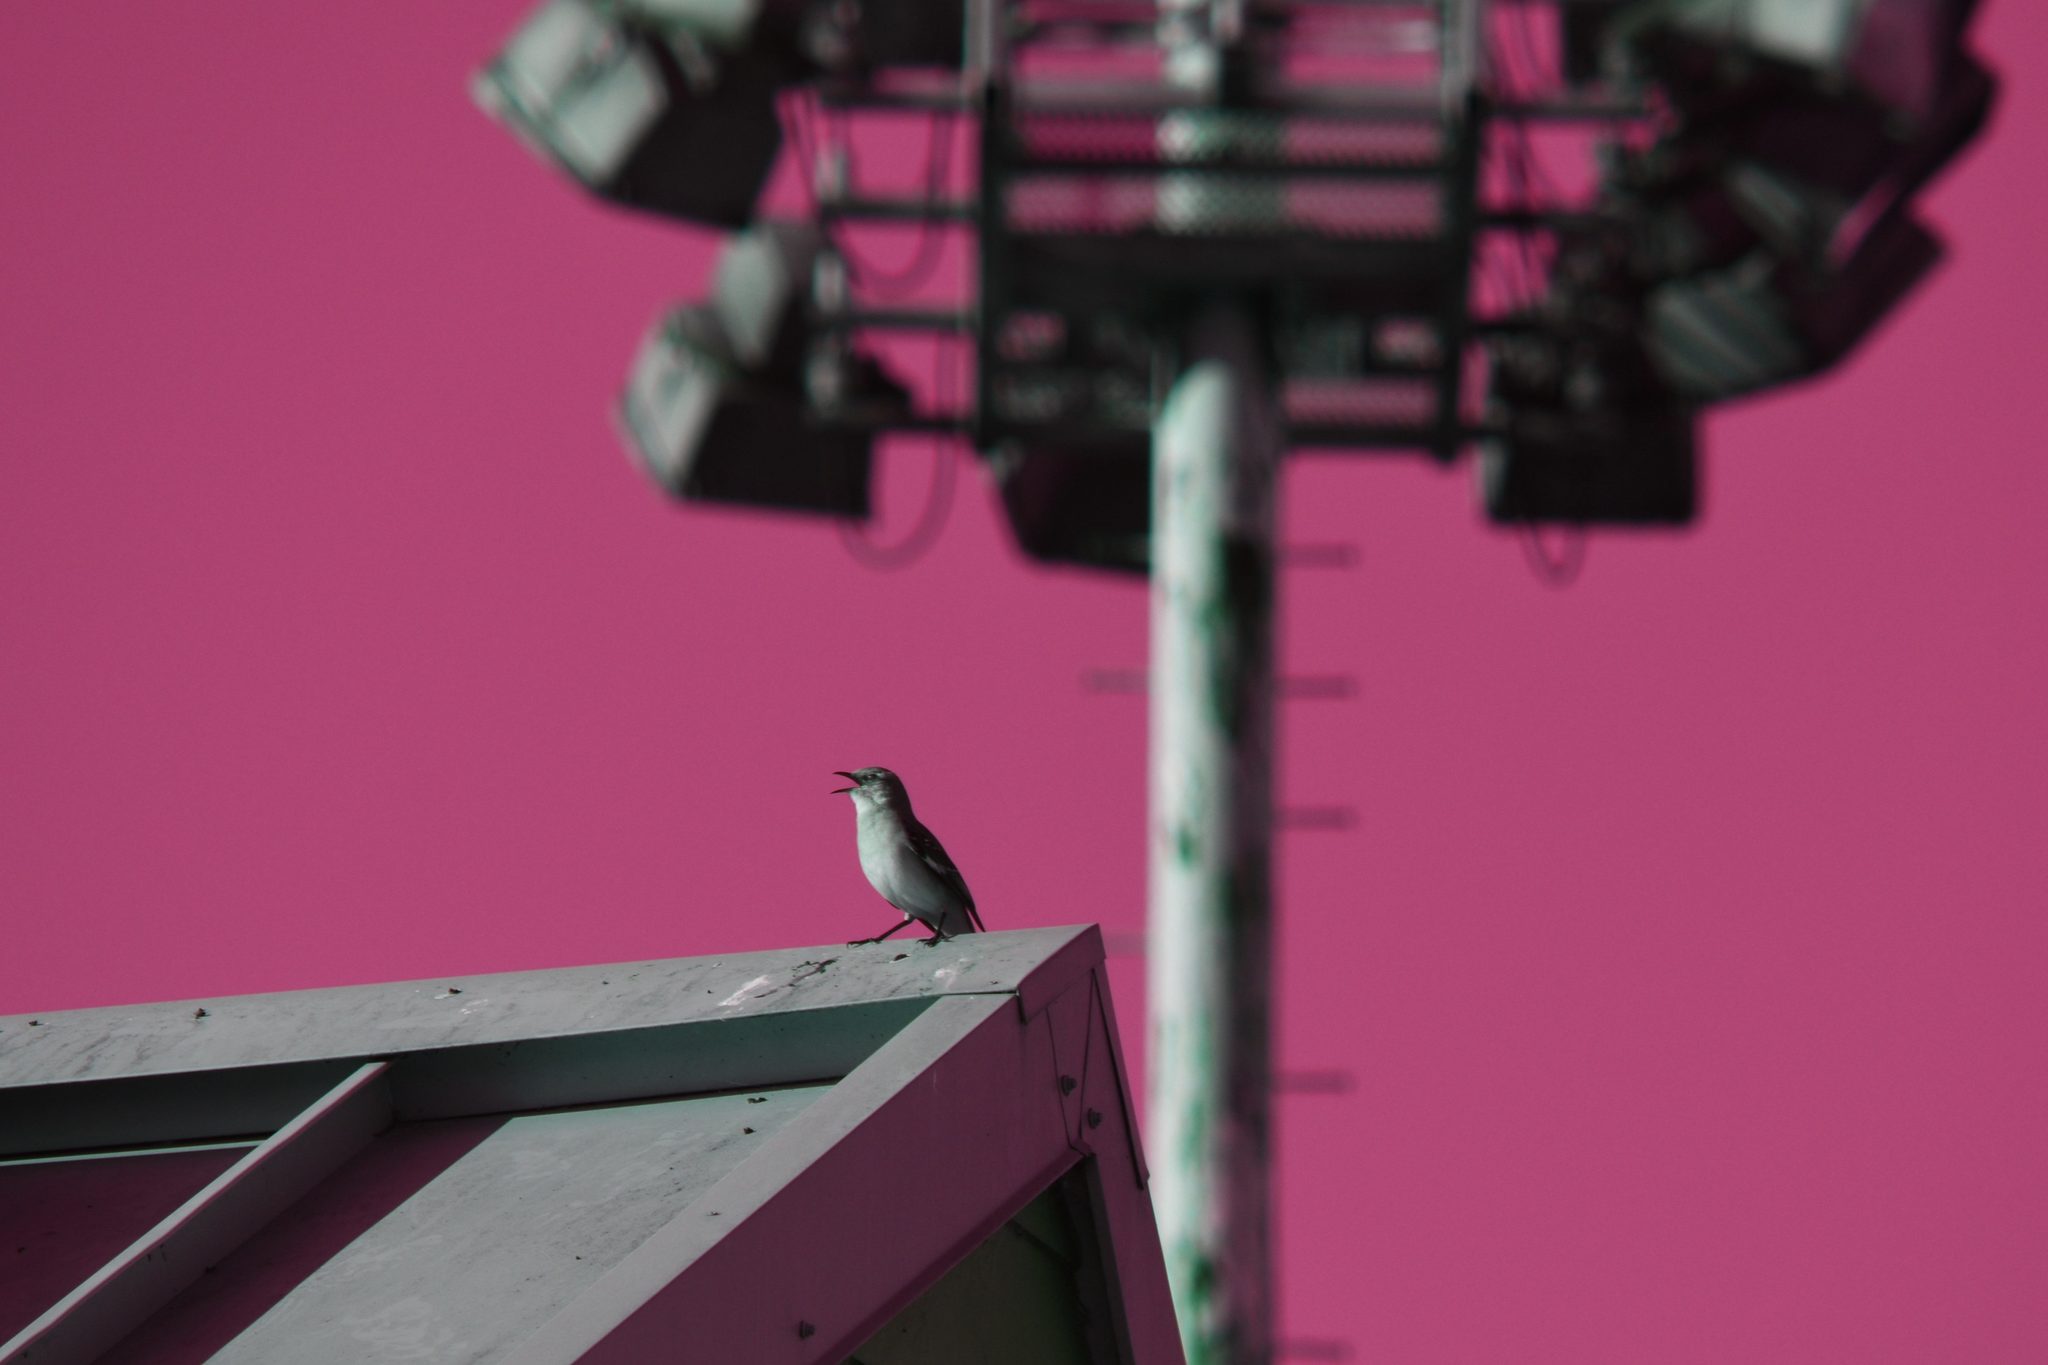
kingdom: Animalia
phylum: Chordata
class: Aves
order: Passeriformes
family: Mimidae
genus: Mimus
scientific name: Mimus polyglottos
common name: Northern mockingbird
